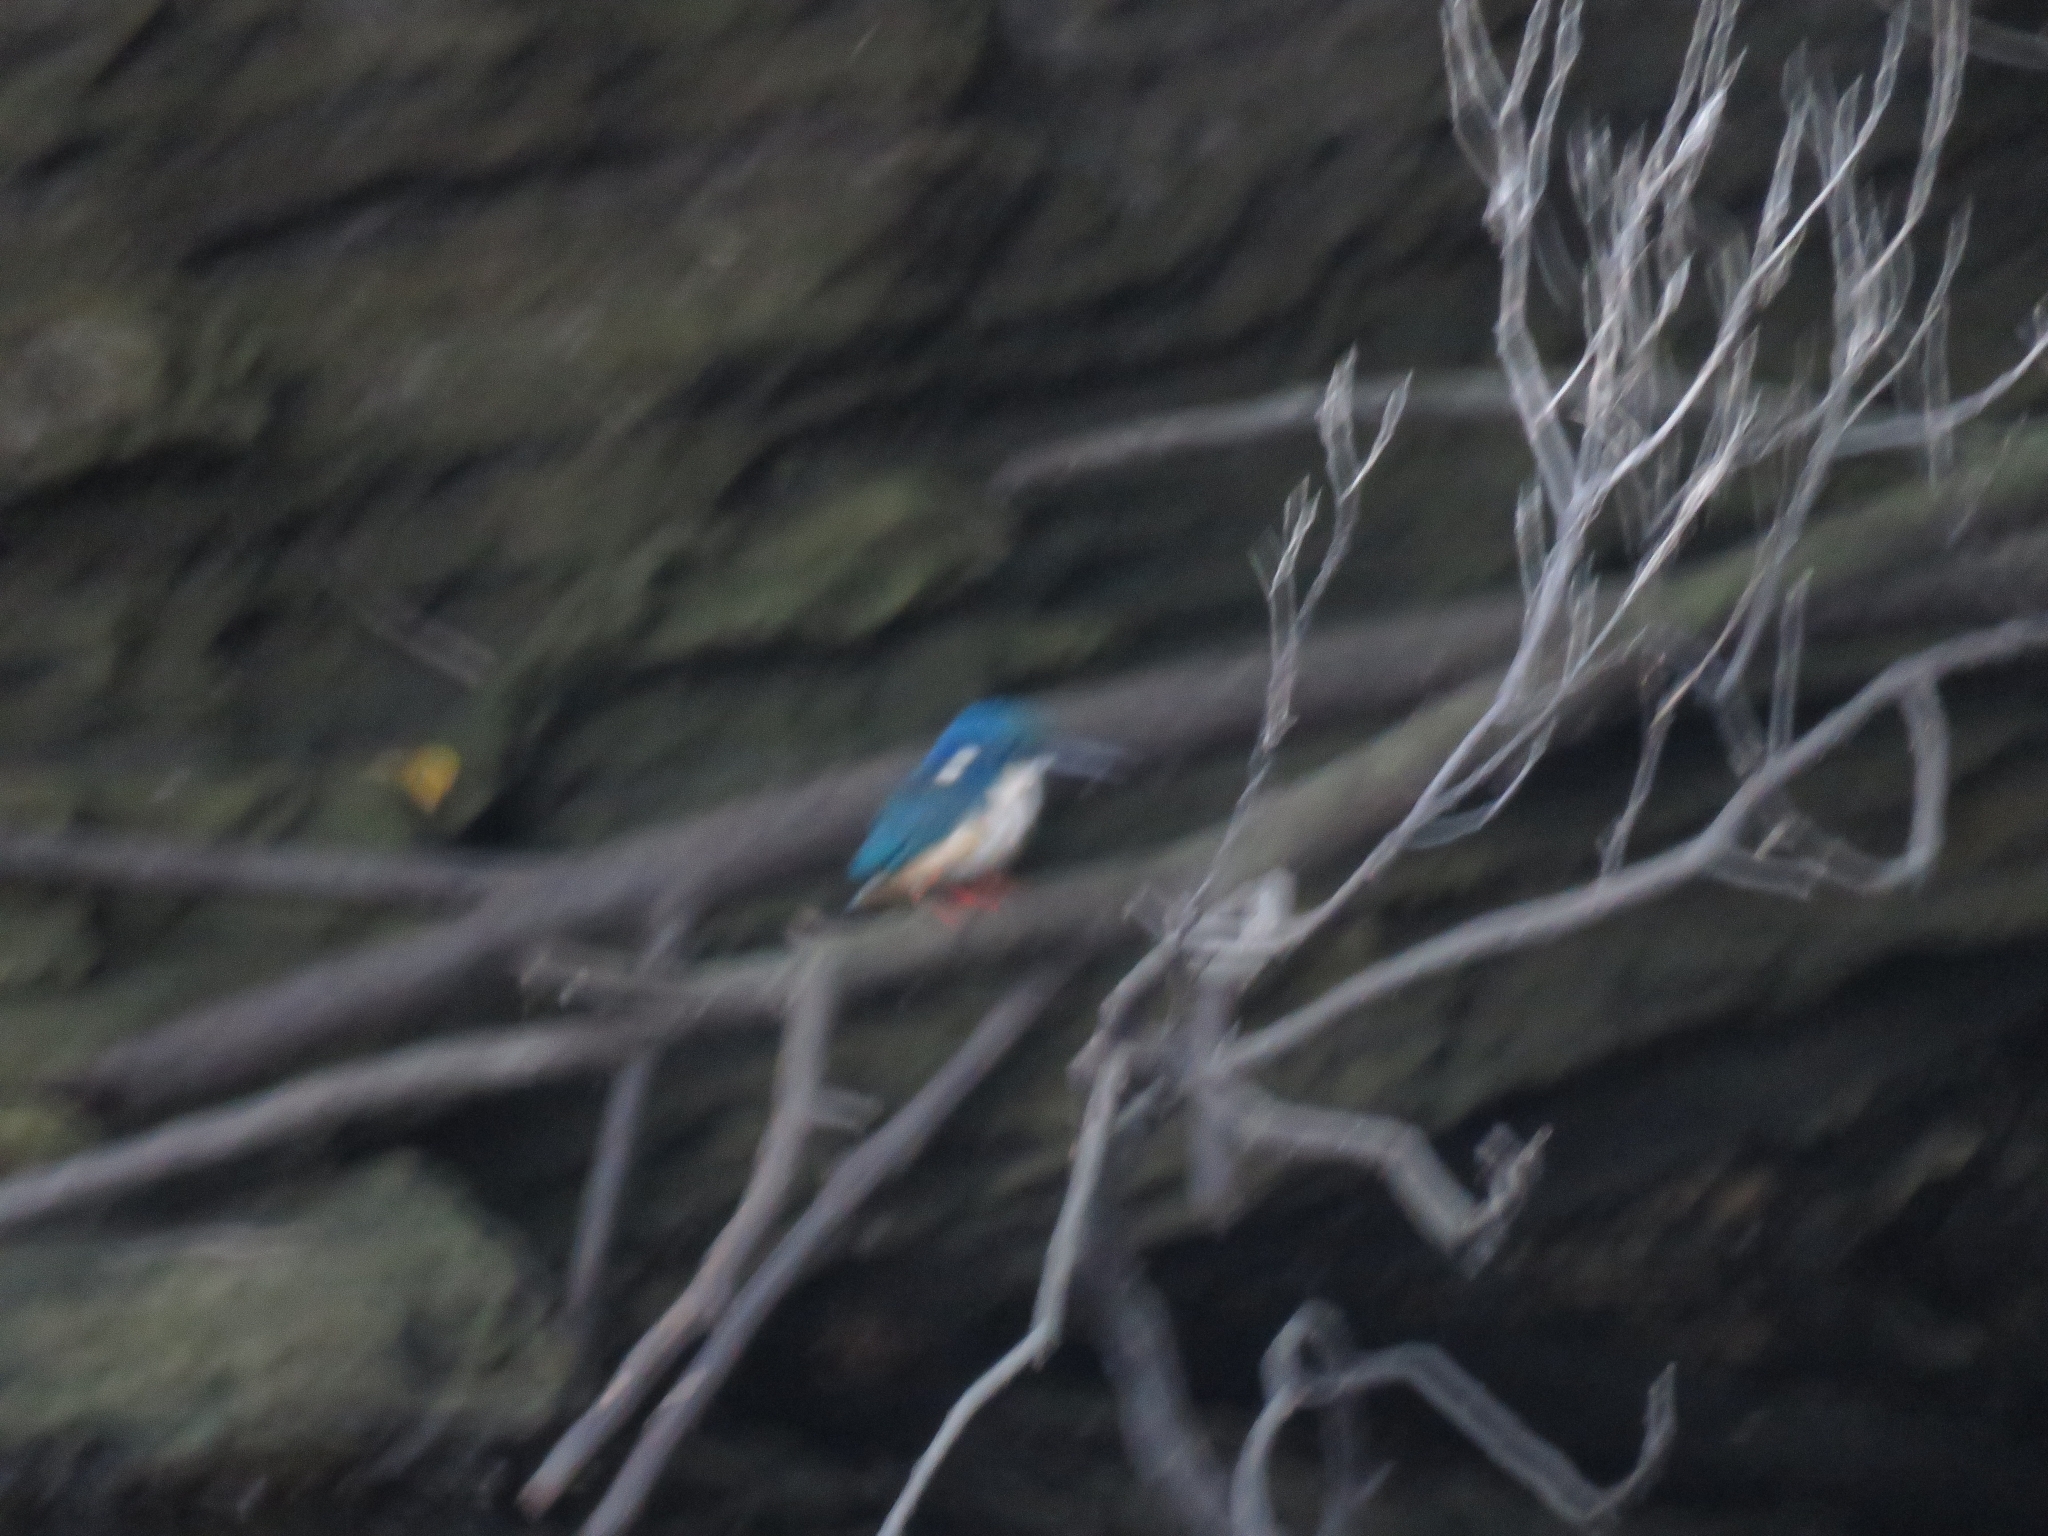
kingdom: Animalia
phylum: Chordata
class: Aves
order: Coraciiformes
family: Alcedinidae
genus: Alcedo
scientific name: Alcedo semitorquata
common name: Half-collared kingfisher
